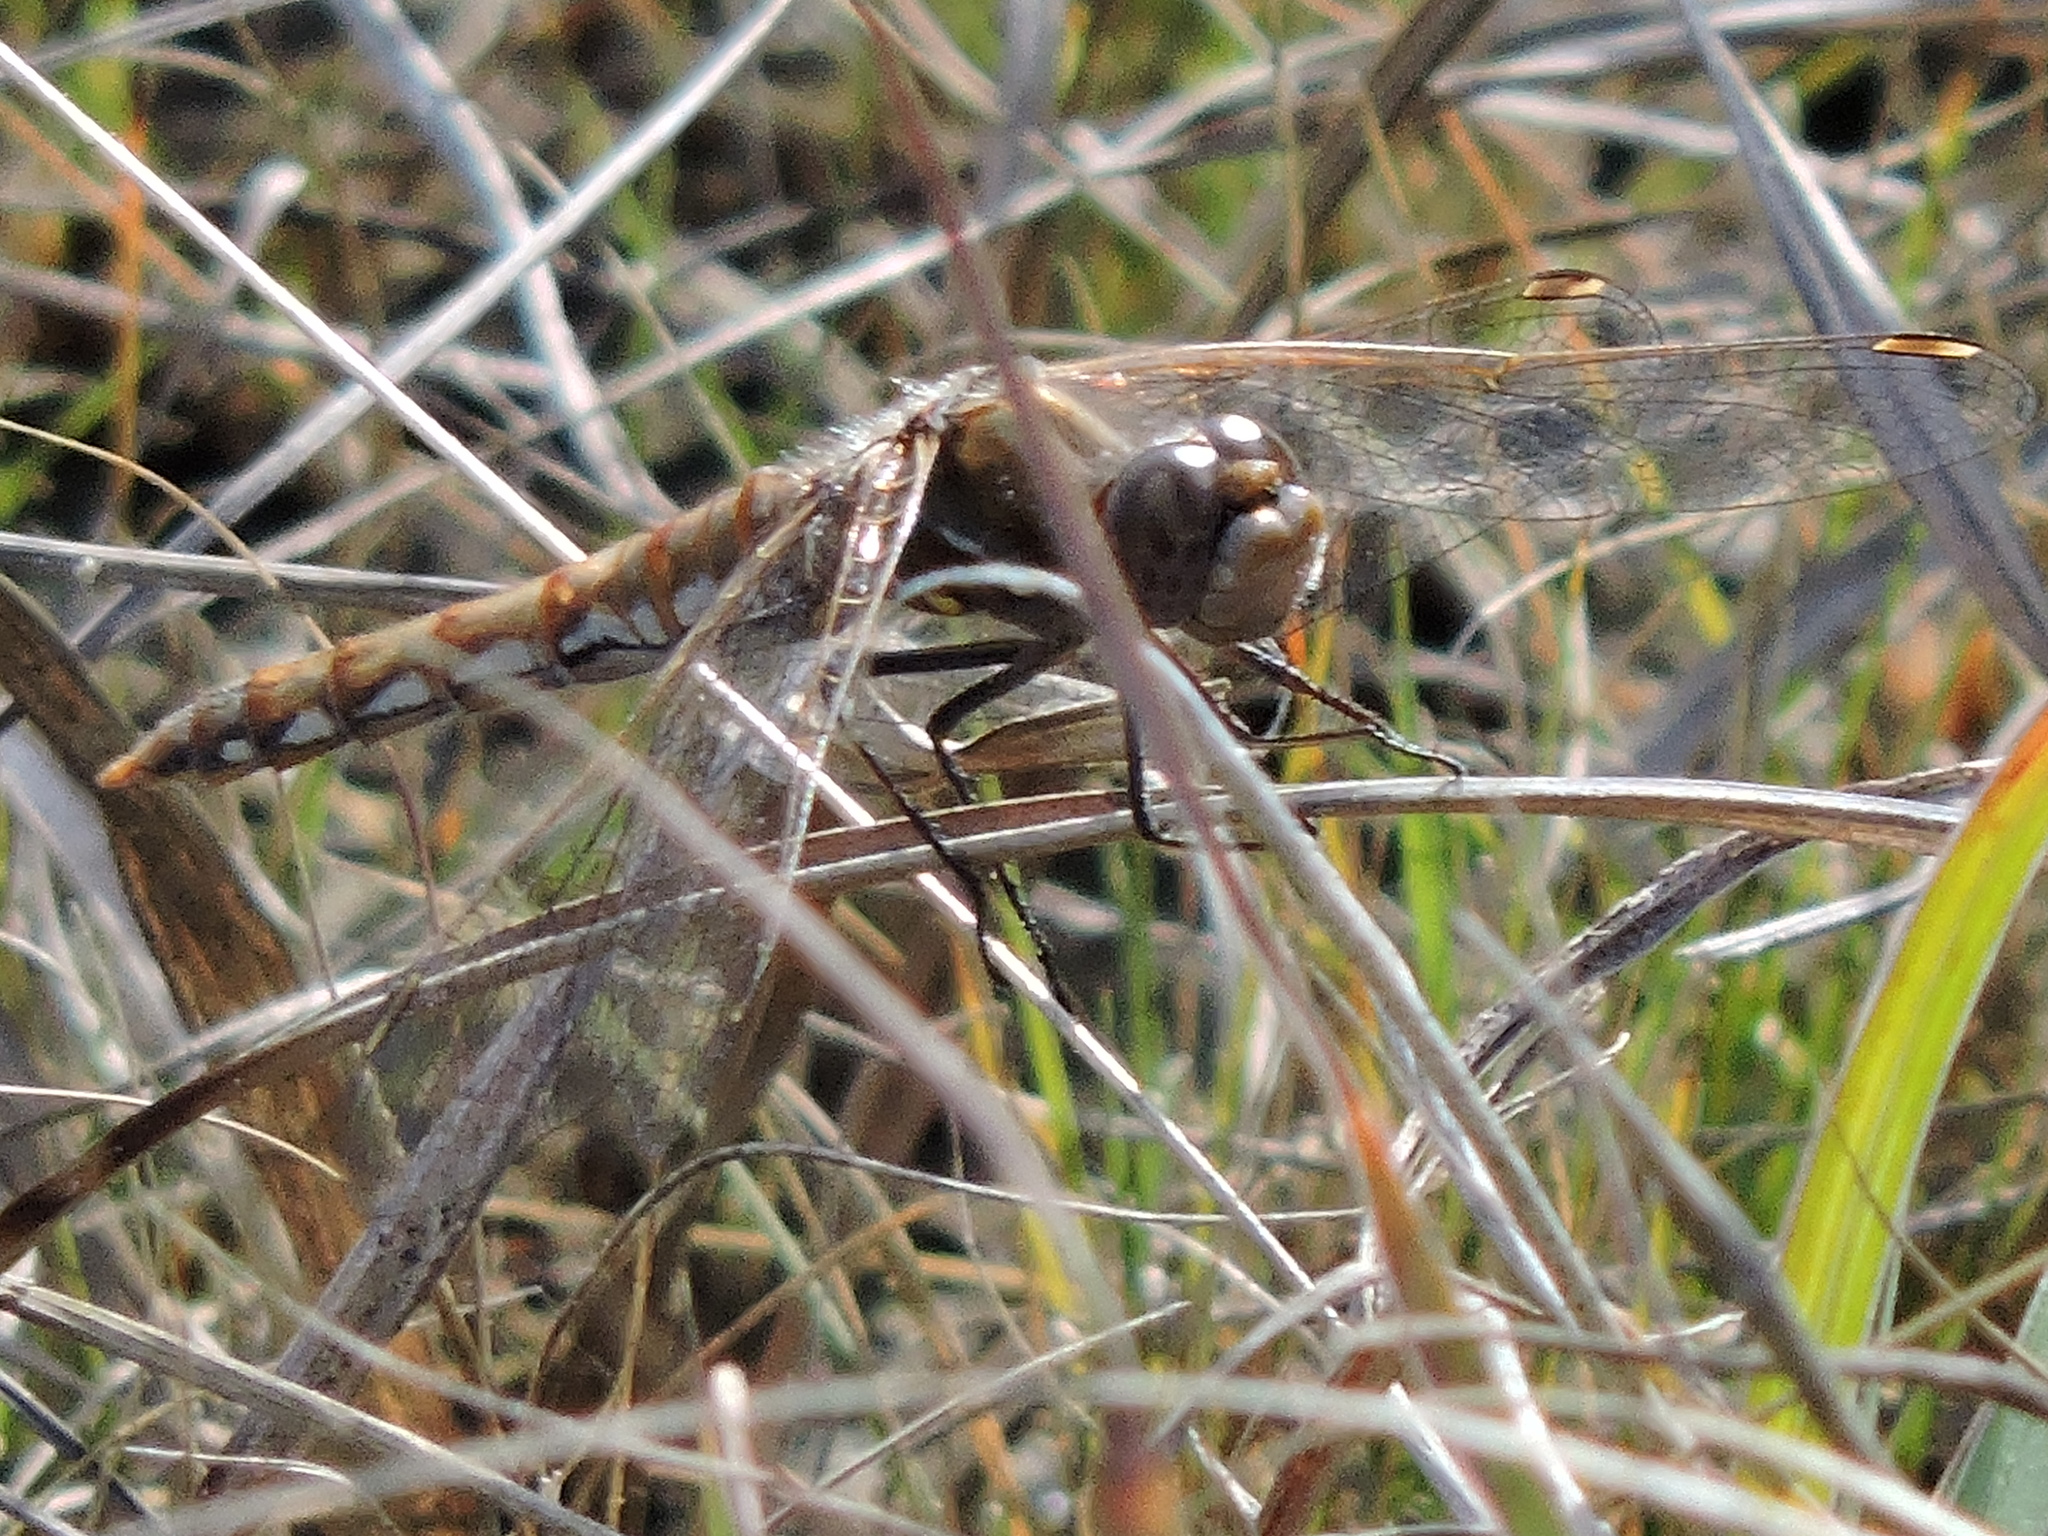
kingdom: Animalia
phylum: Arthropoda
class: Insecta
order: Odonata
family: Libellulidae
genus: Sympetrum
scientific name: Sympetrum corruptum
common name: Variegated meadowhawk
